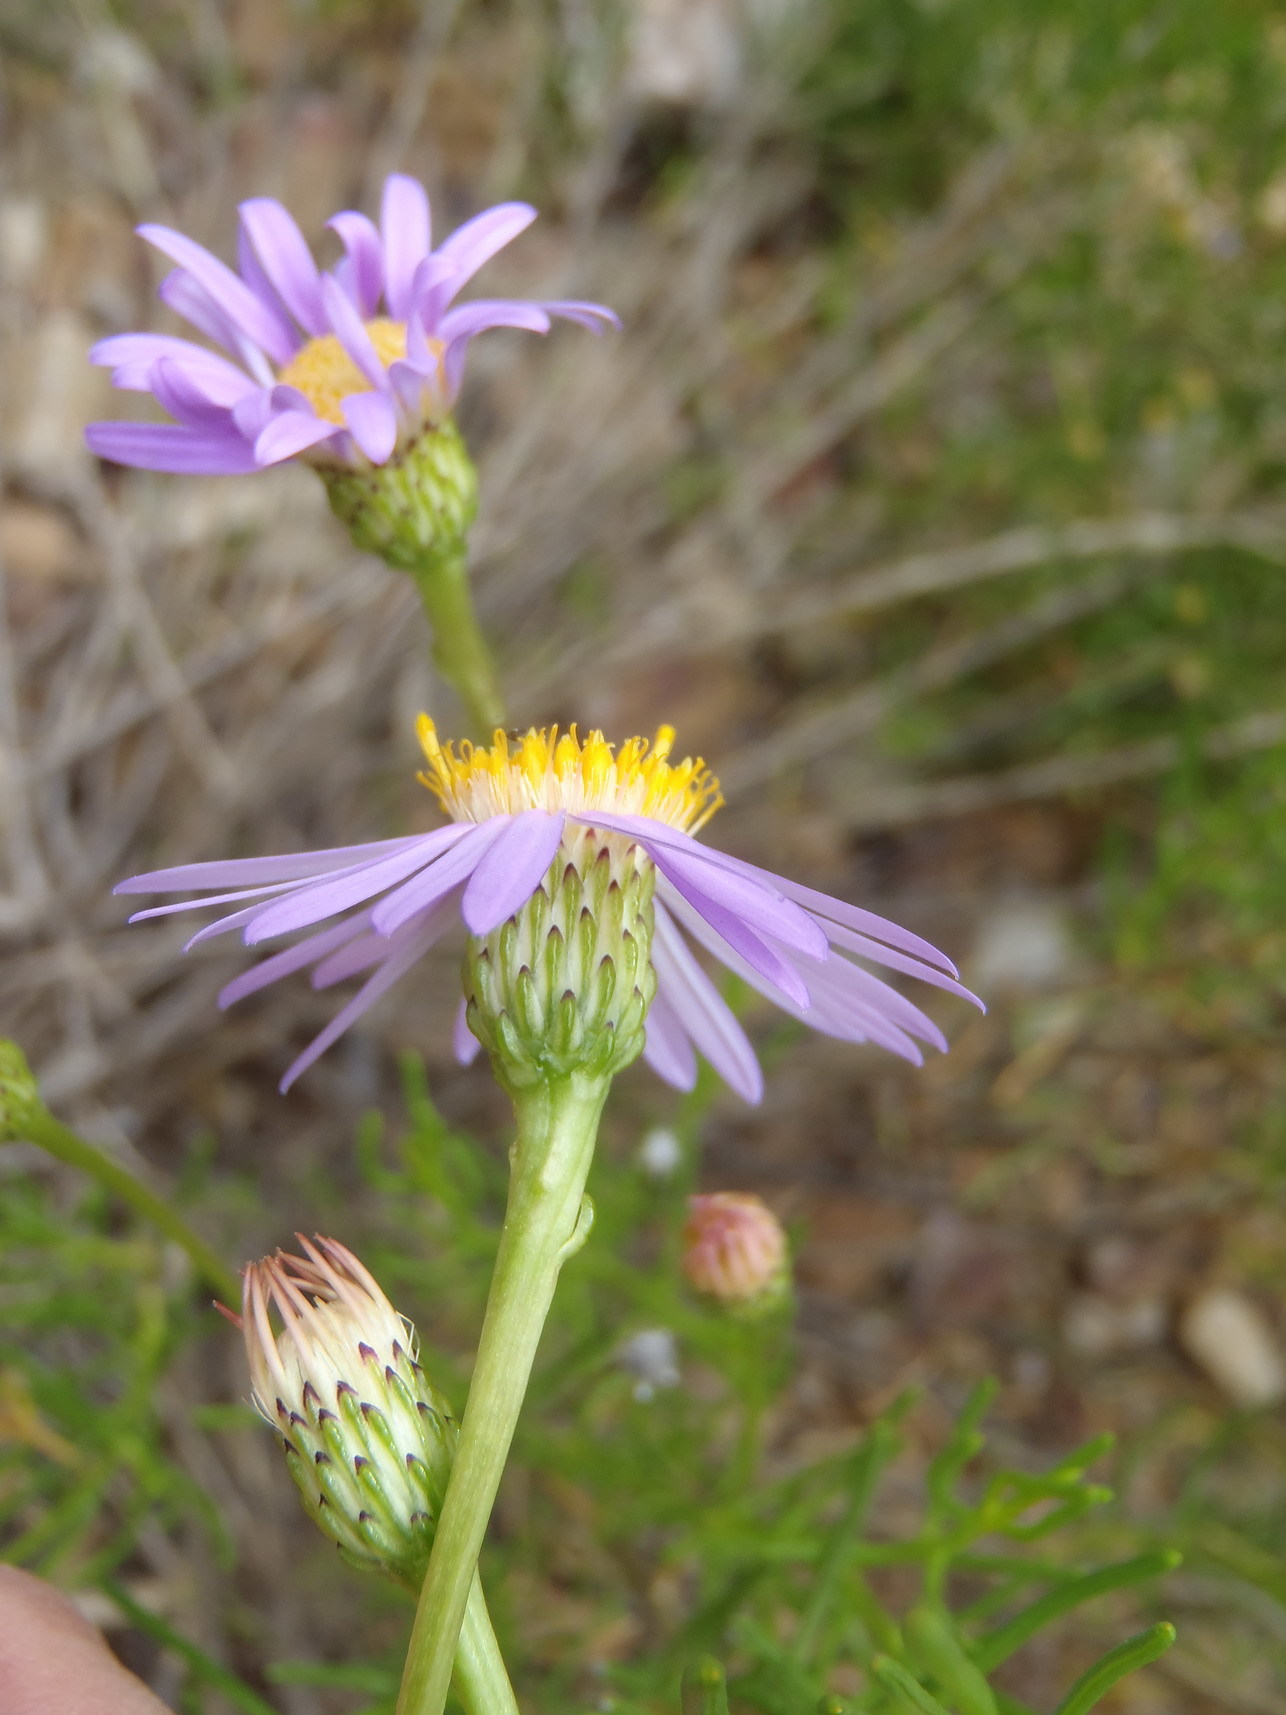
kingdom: Plantae
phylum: Tracheophyta
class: Magnoliopsida
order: Asterales
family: Asteraceae
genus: Felicia
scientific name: Felicia filifolia
